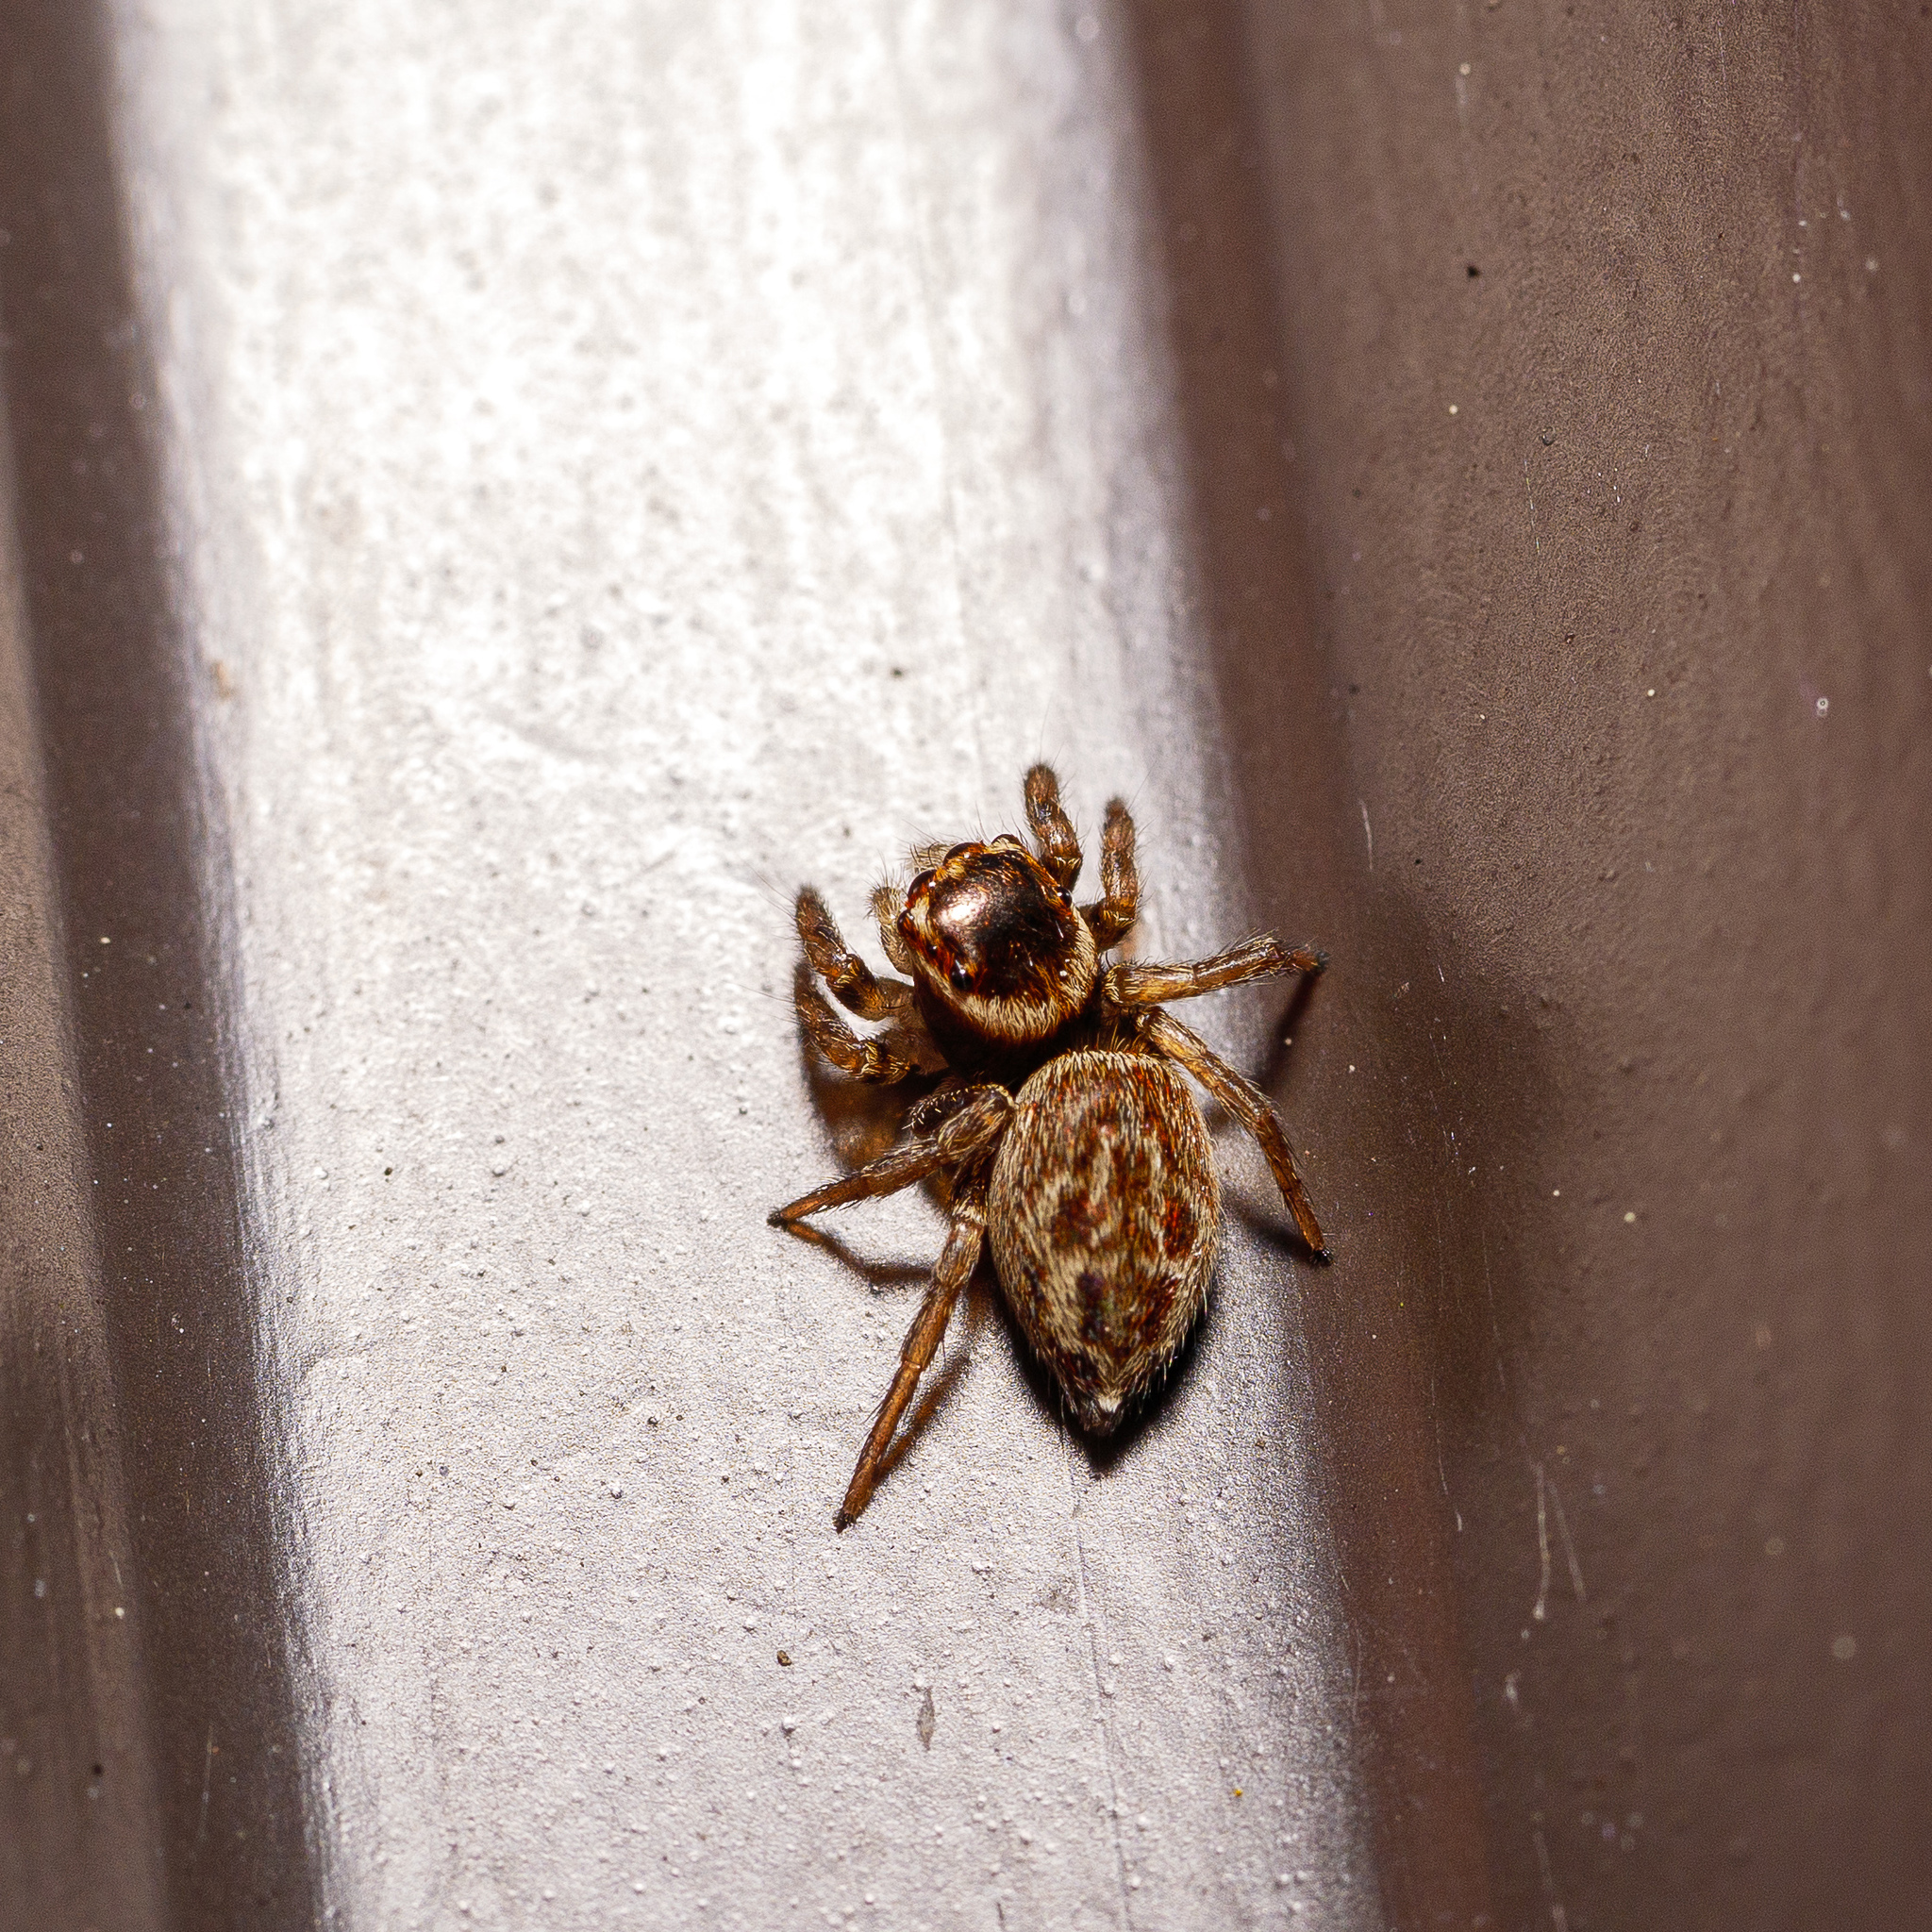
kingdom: Animalia
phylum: Arthropoda
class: Arachnida
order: Araneae
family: Salticidae
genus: Maratus
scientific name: Maratus griseus
